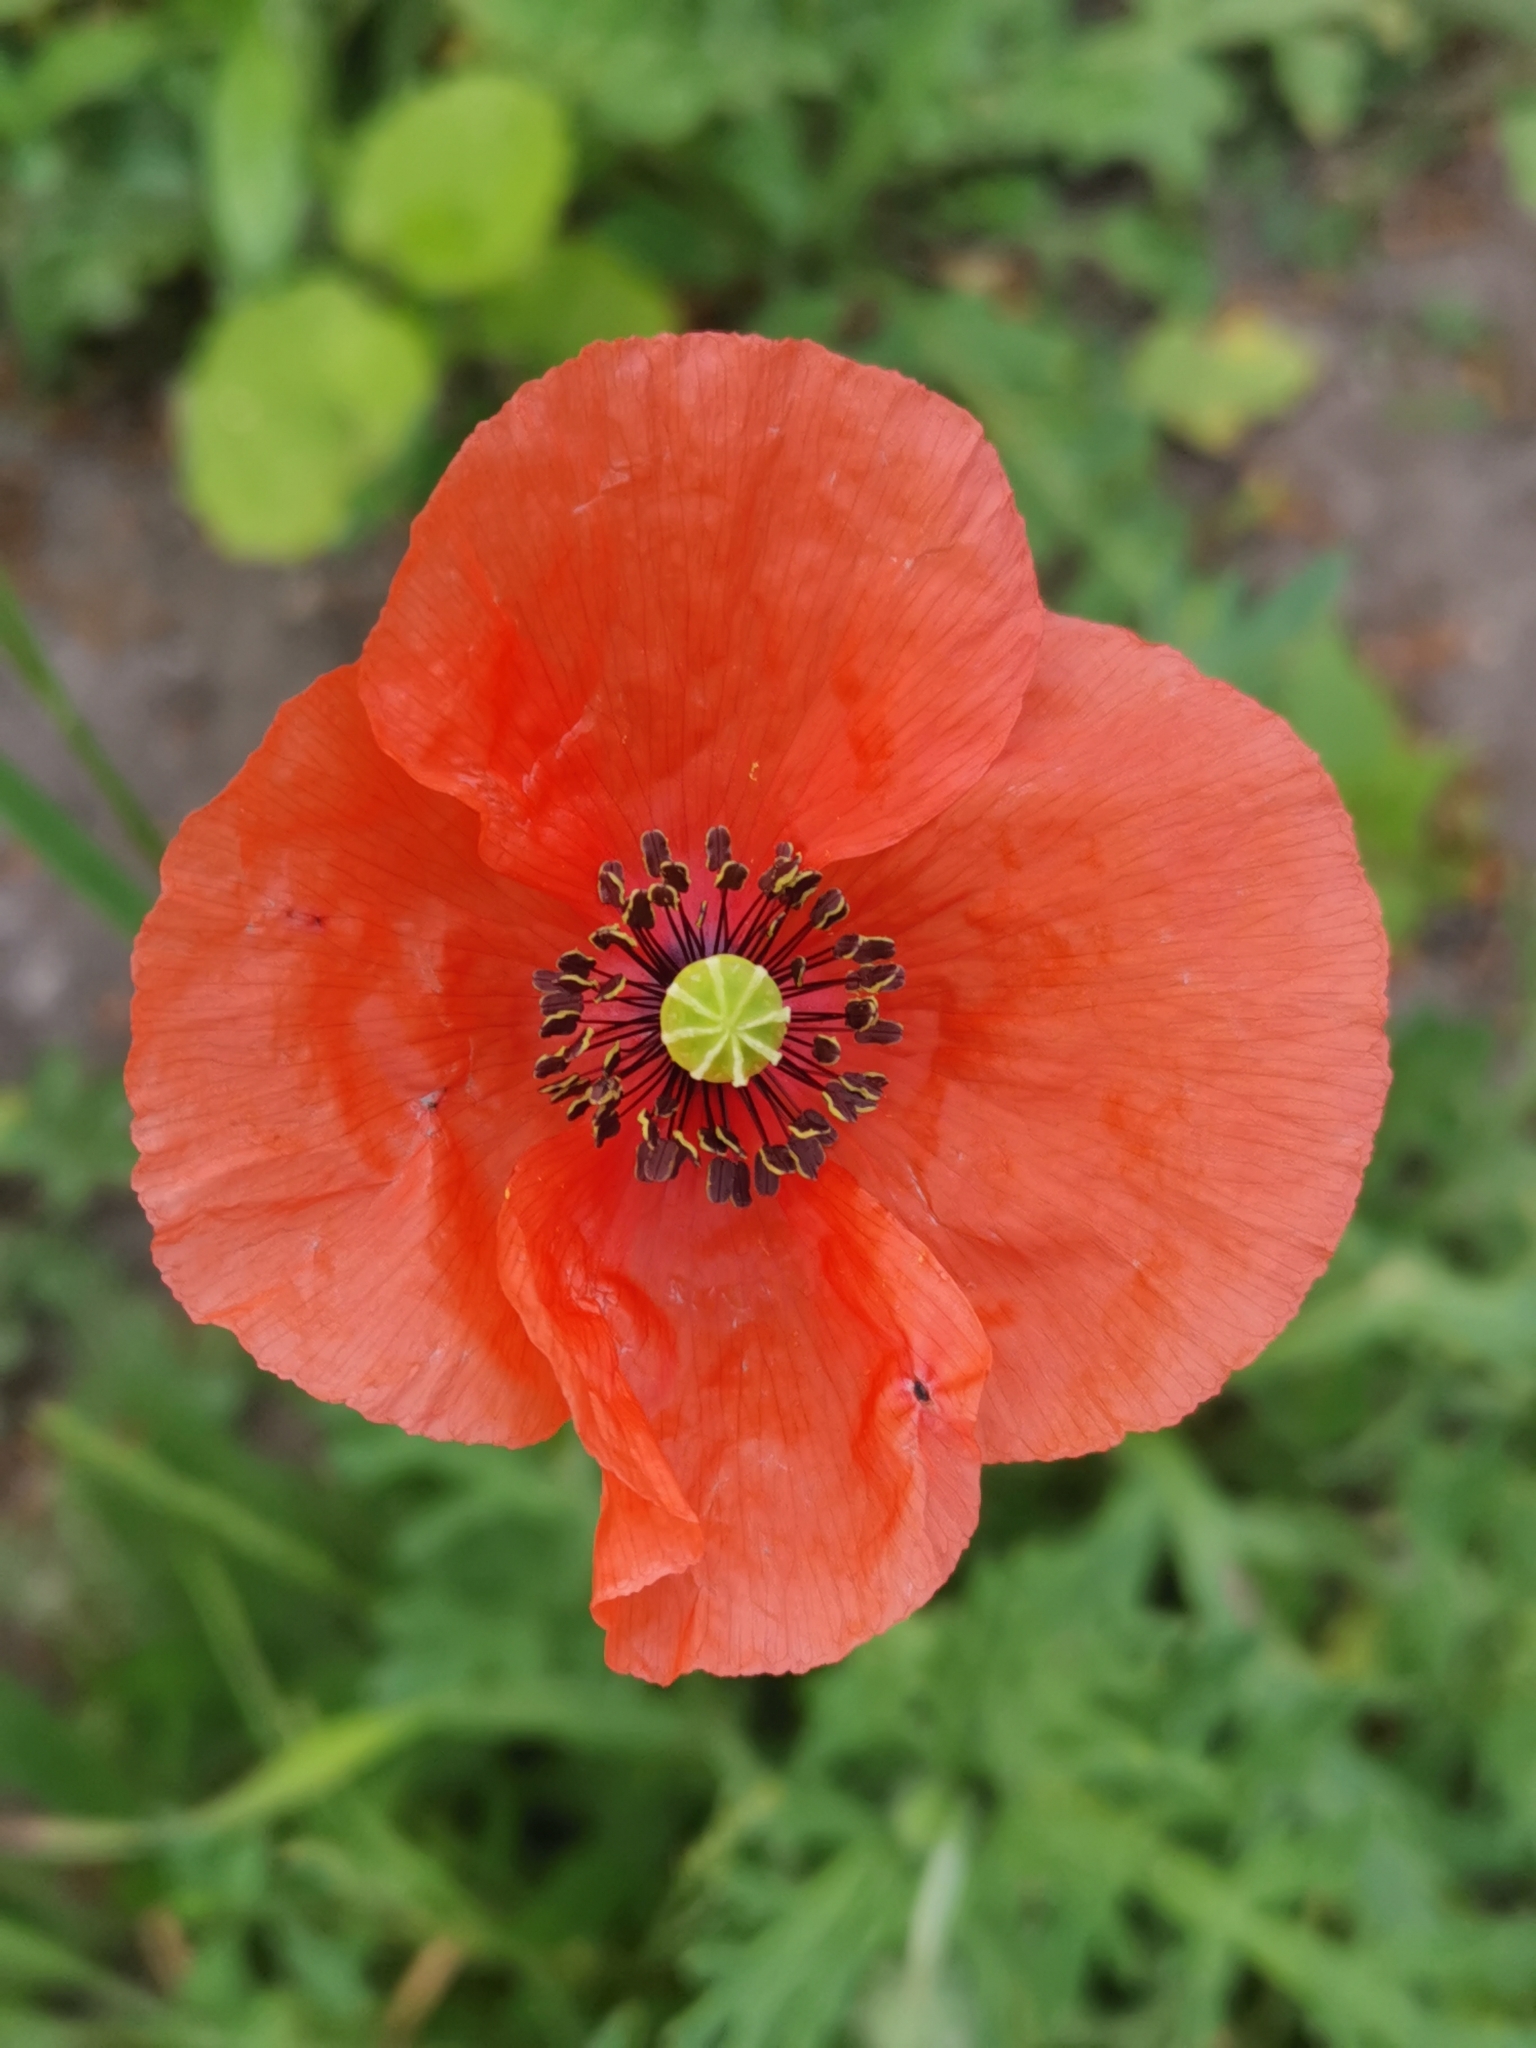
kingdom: Plantae
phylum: Tracheophyta
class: Magnoliopsida
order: Ranunculales
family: Papaveraceae
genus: Papaver
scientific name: Papaver dubium
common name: Long-headed poppy
